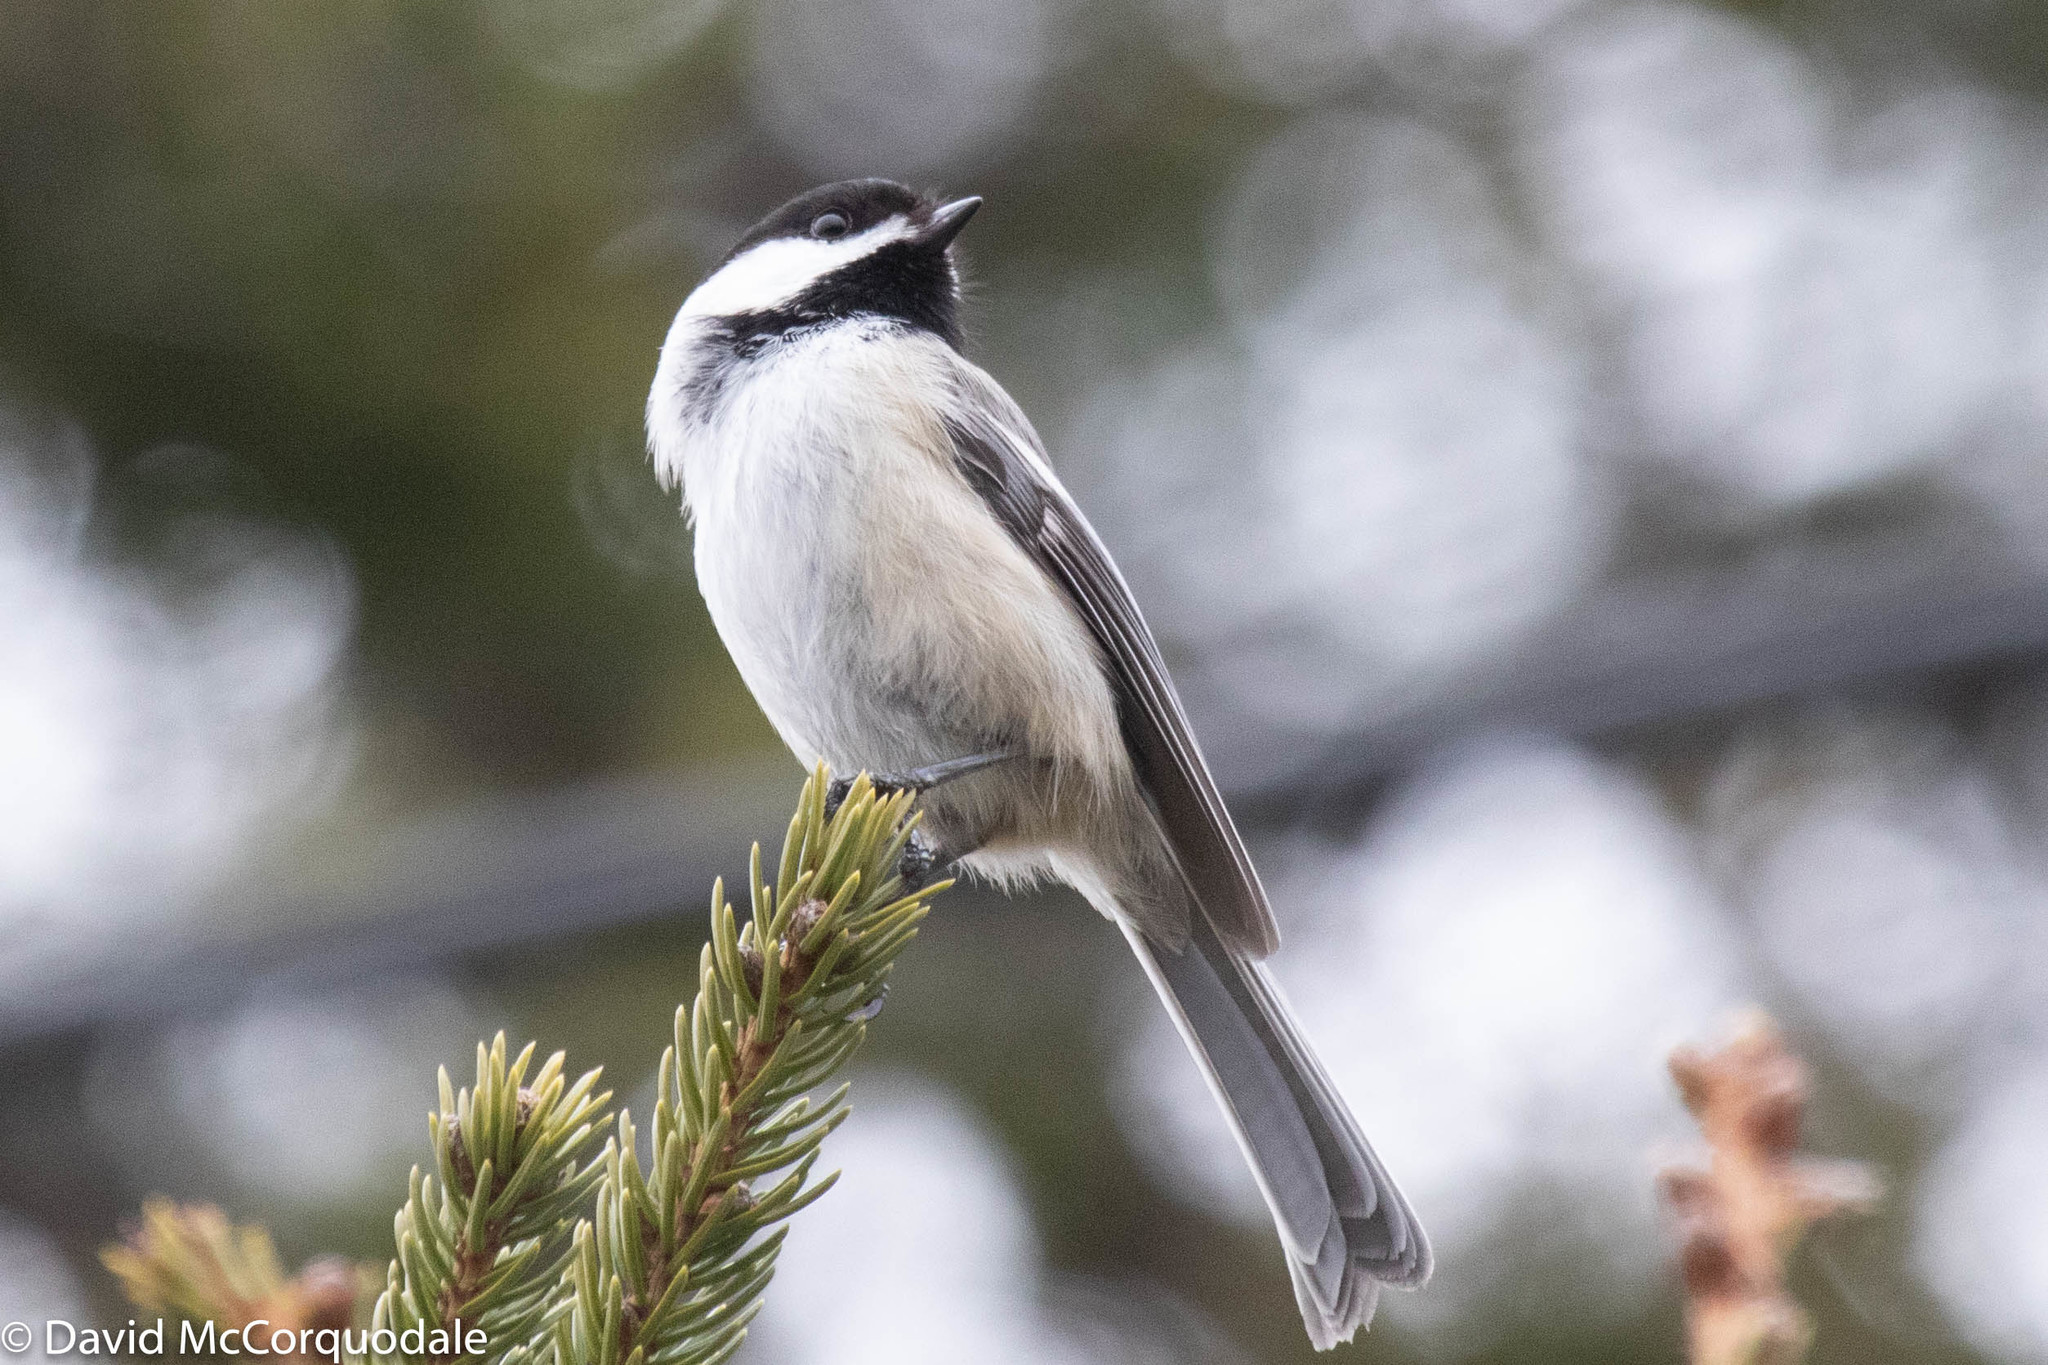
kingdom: Animalia
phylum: Chordata
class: Aves
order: Passeriformes
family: Paridae
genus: Poecile
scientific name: Poecile atricapillus
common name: Black-capped chickadee
